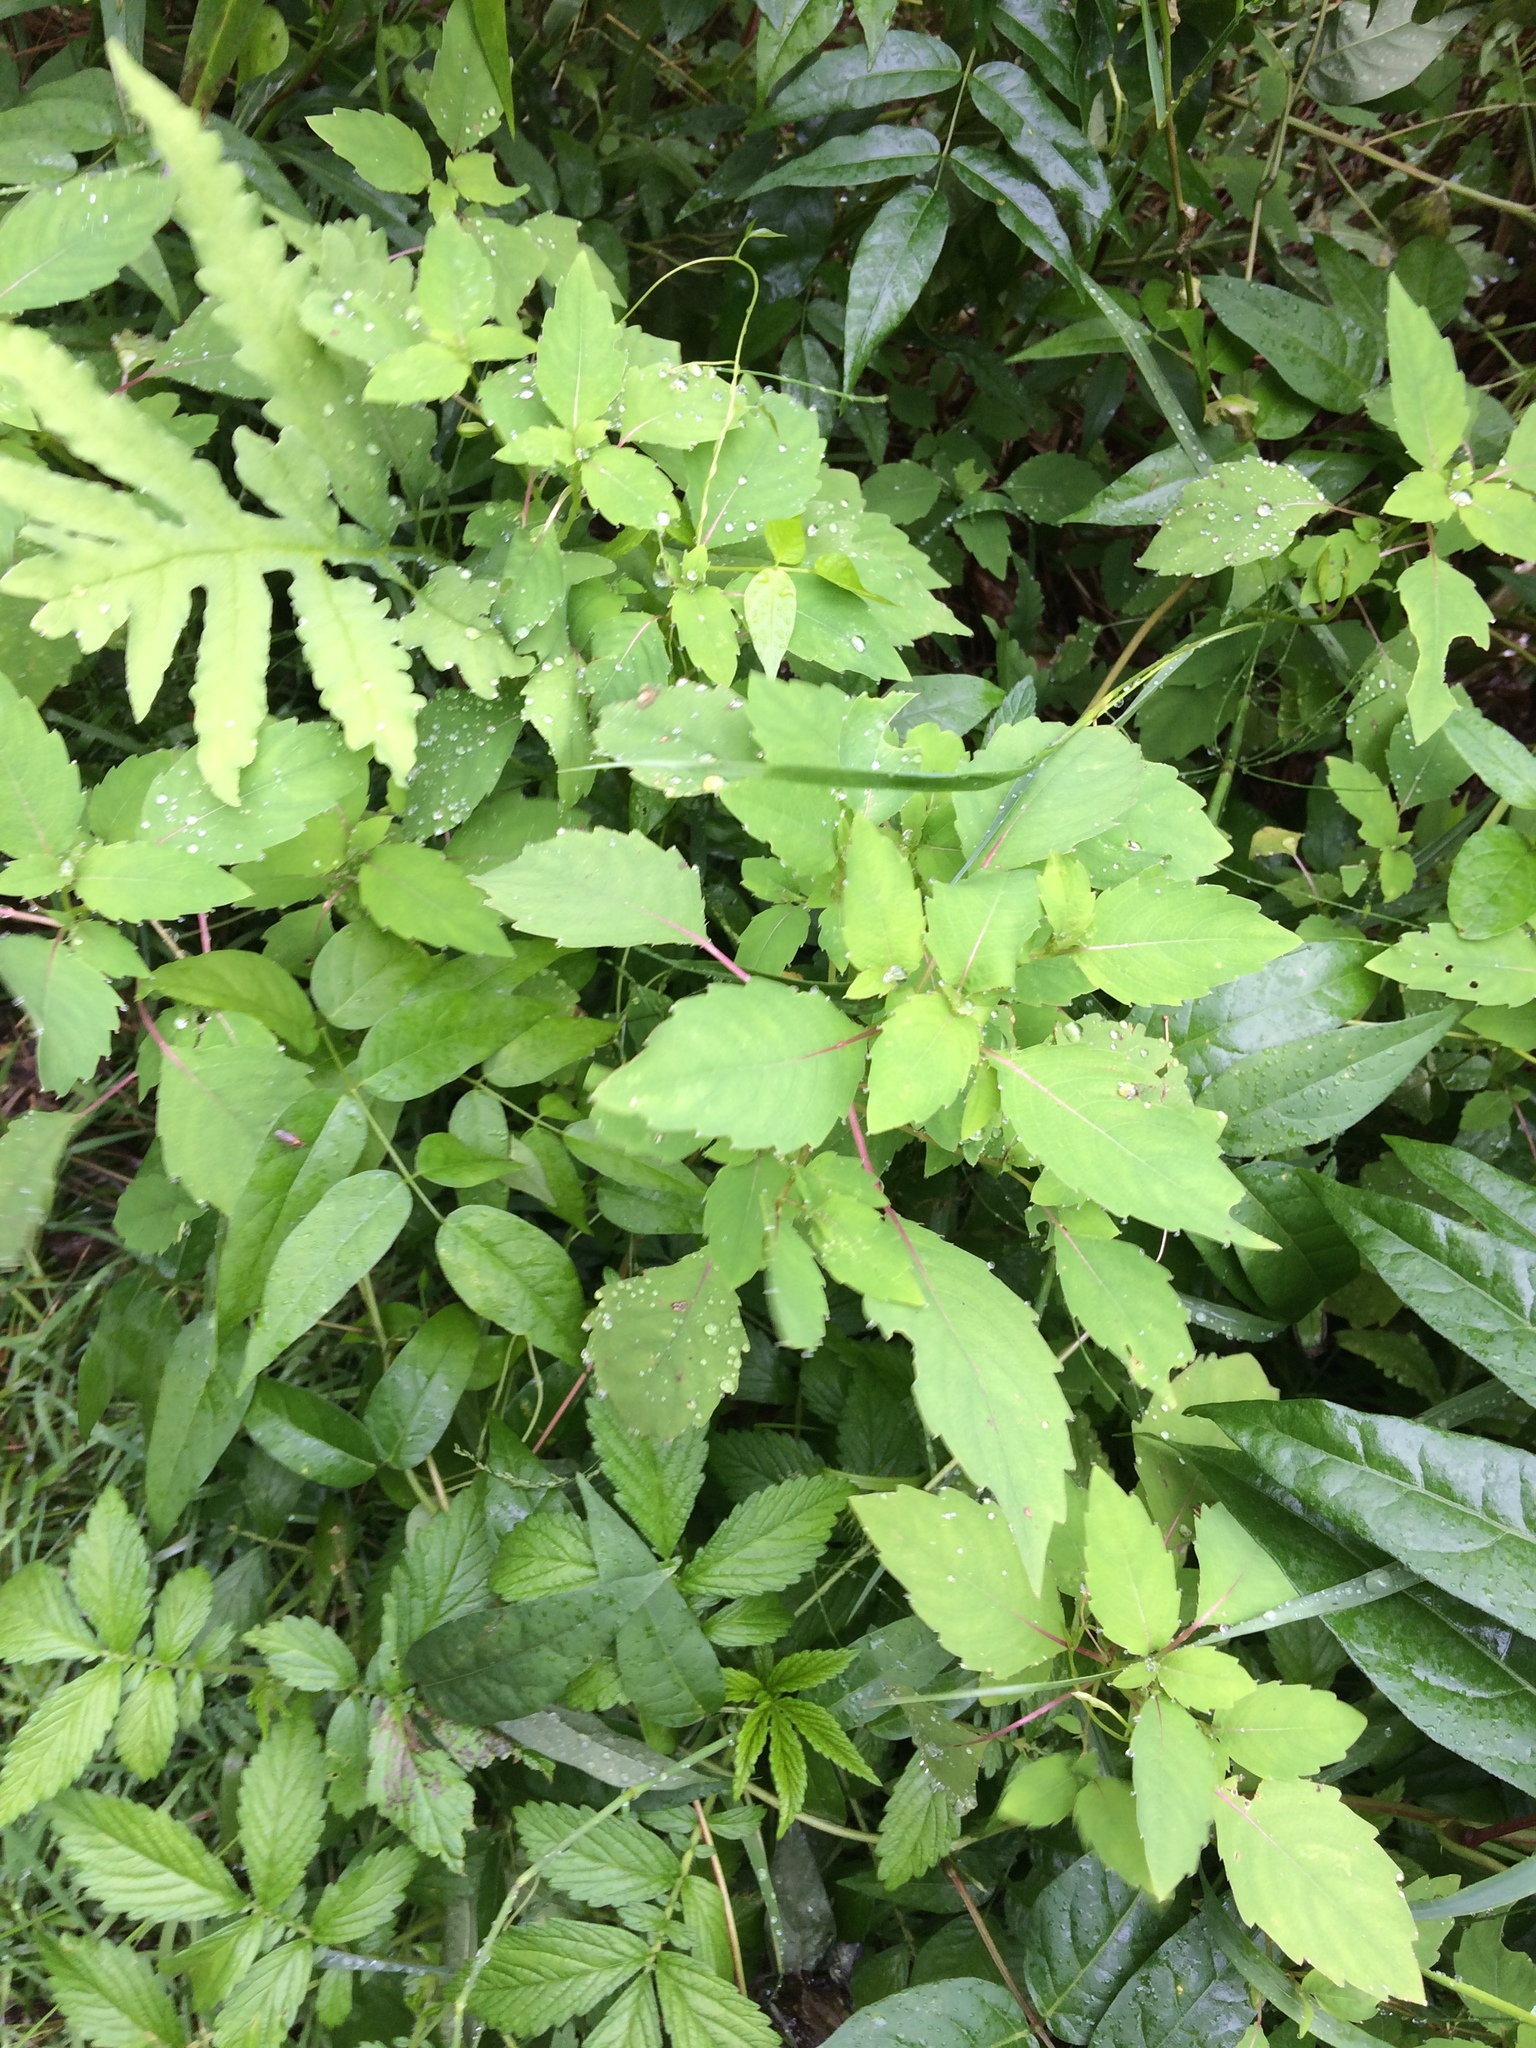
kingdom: Plantae
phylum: Tracheophyta
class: Magnoliopsida
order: Ericales
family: Balsaminaceae
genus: Impatiens
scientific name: Impatiens capensis
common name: Orange balsam
